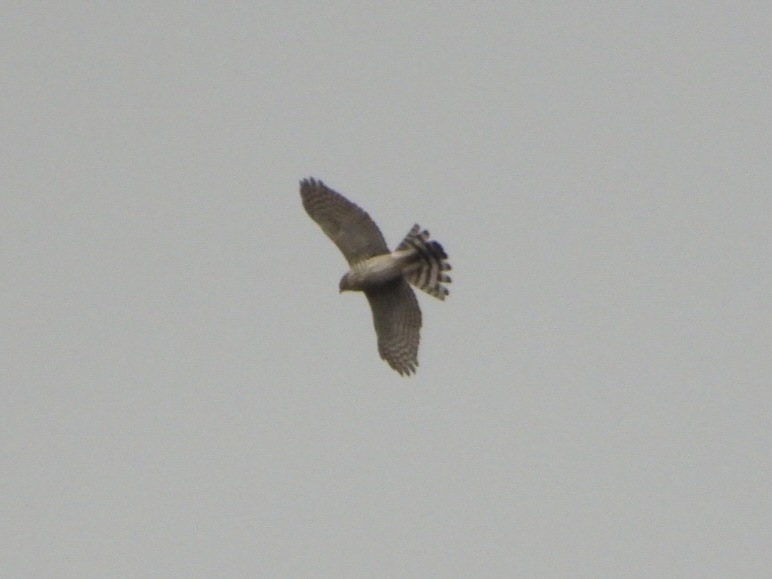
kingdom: Animalia
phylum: Chordata
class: Aves
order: Accipitriformes
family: Accipitridae
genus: Accipiter
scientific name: Accipiter cooperii
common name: Cooper's hawk
